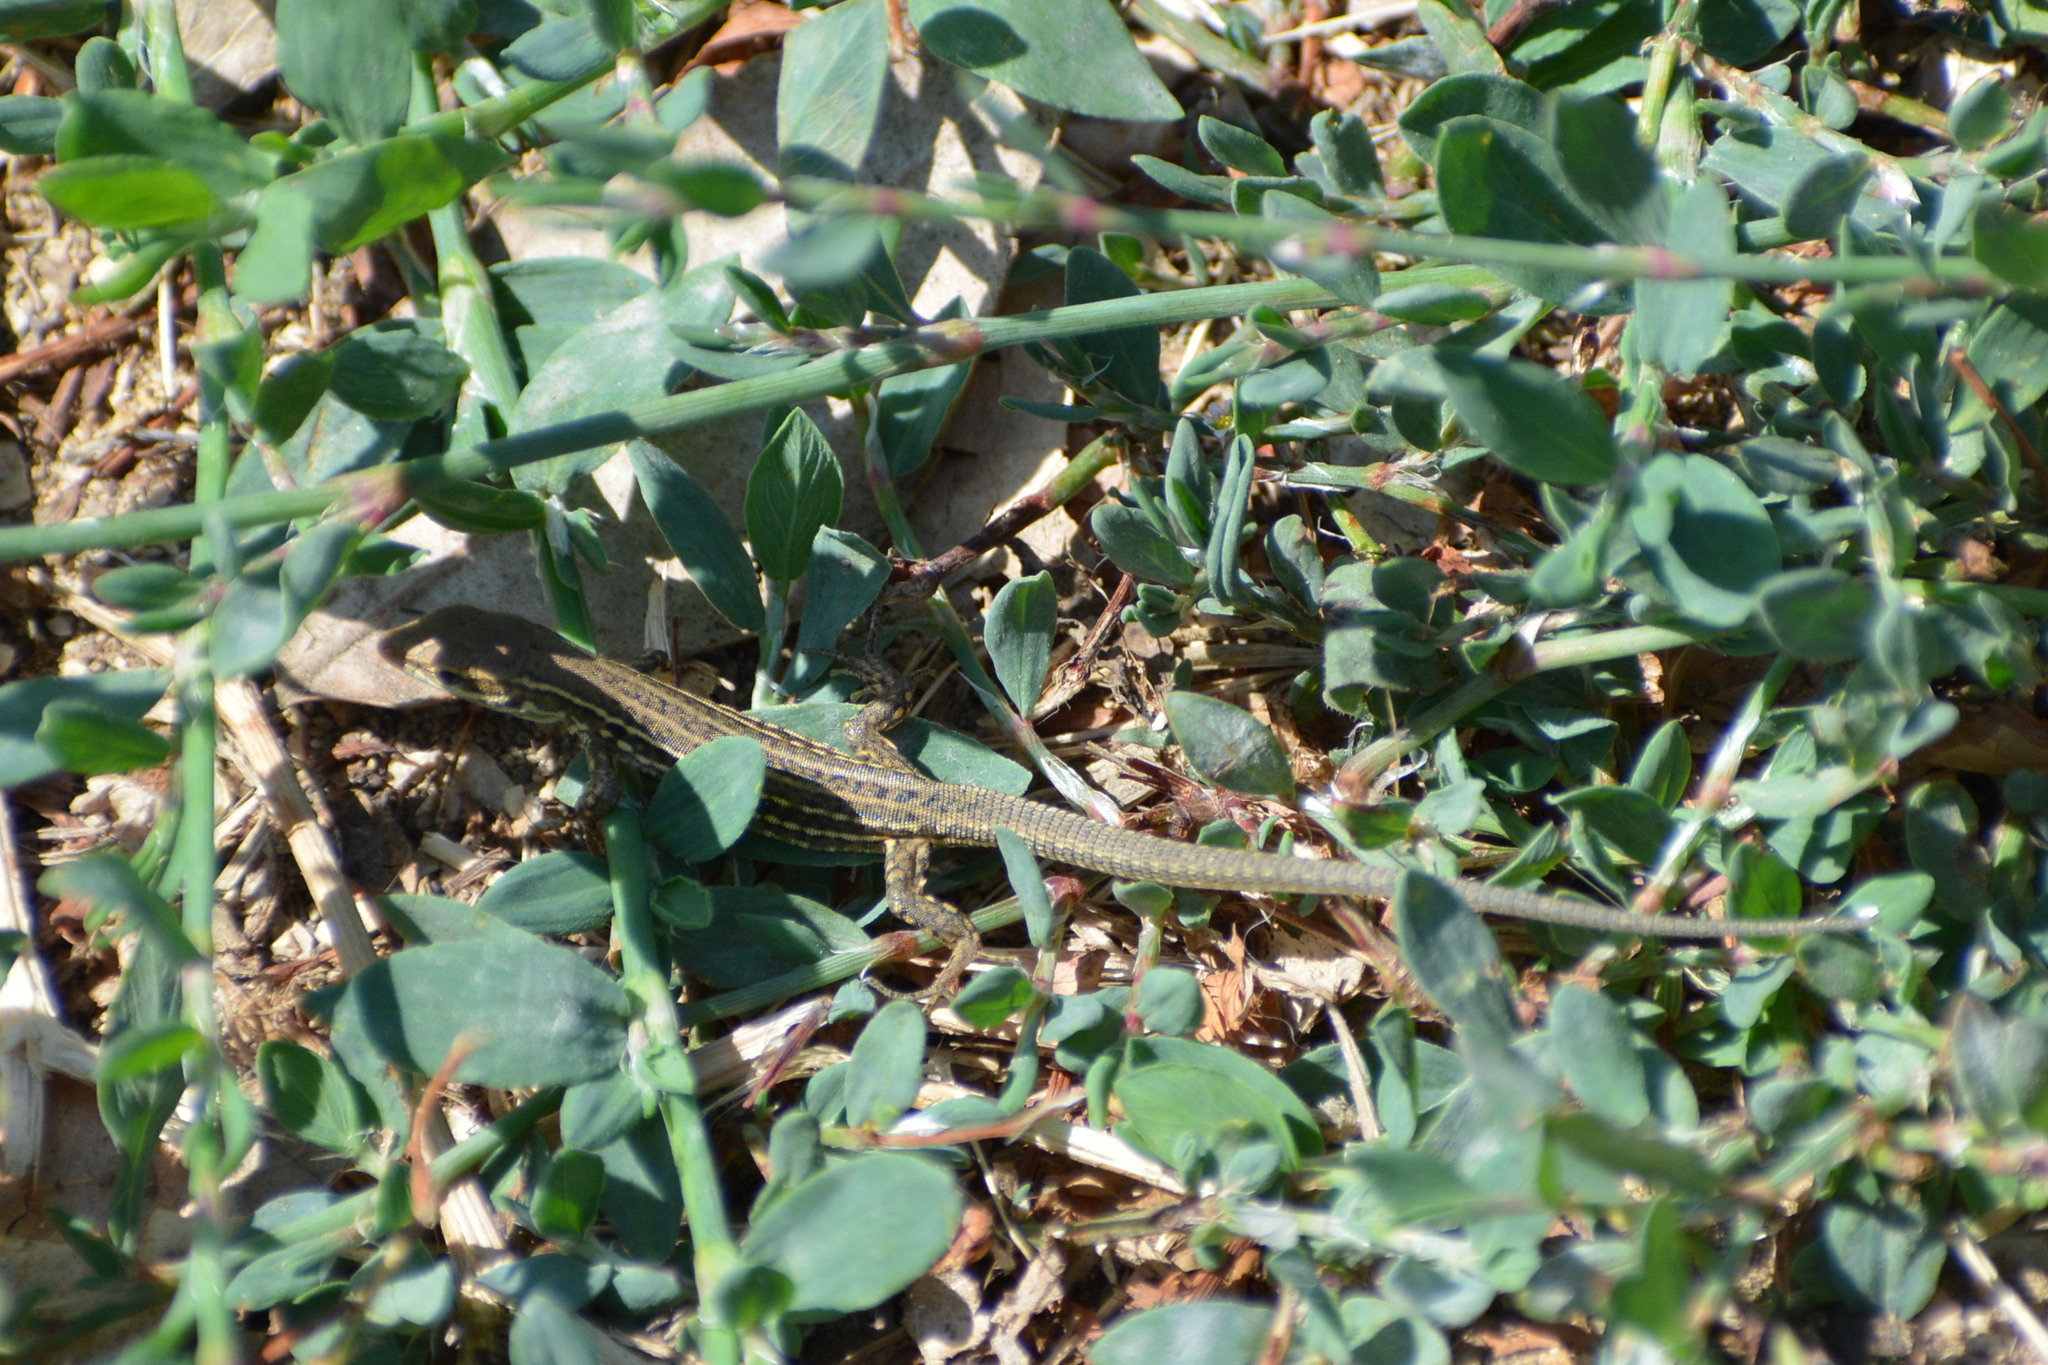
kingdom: Animalia
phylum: Chordata
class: Squamata
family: Lacertidae
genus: Podarcis
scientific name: Podarcis siculus
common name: Italian wall lizard
